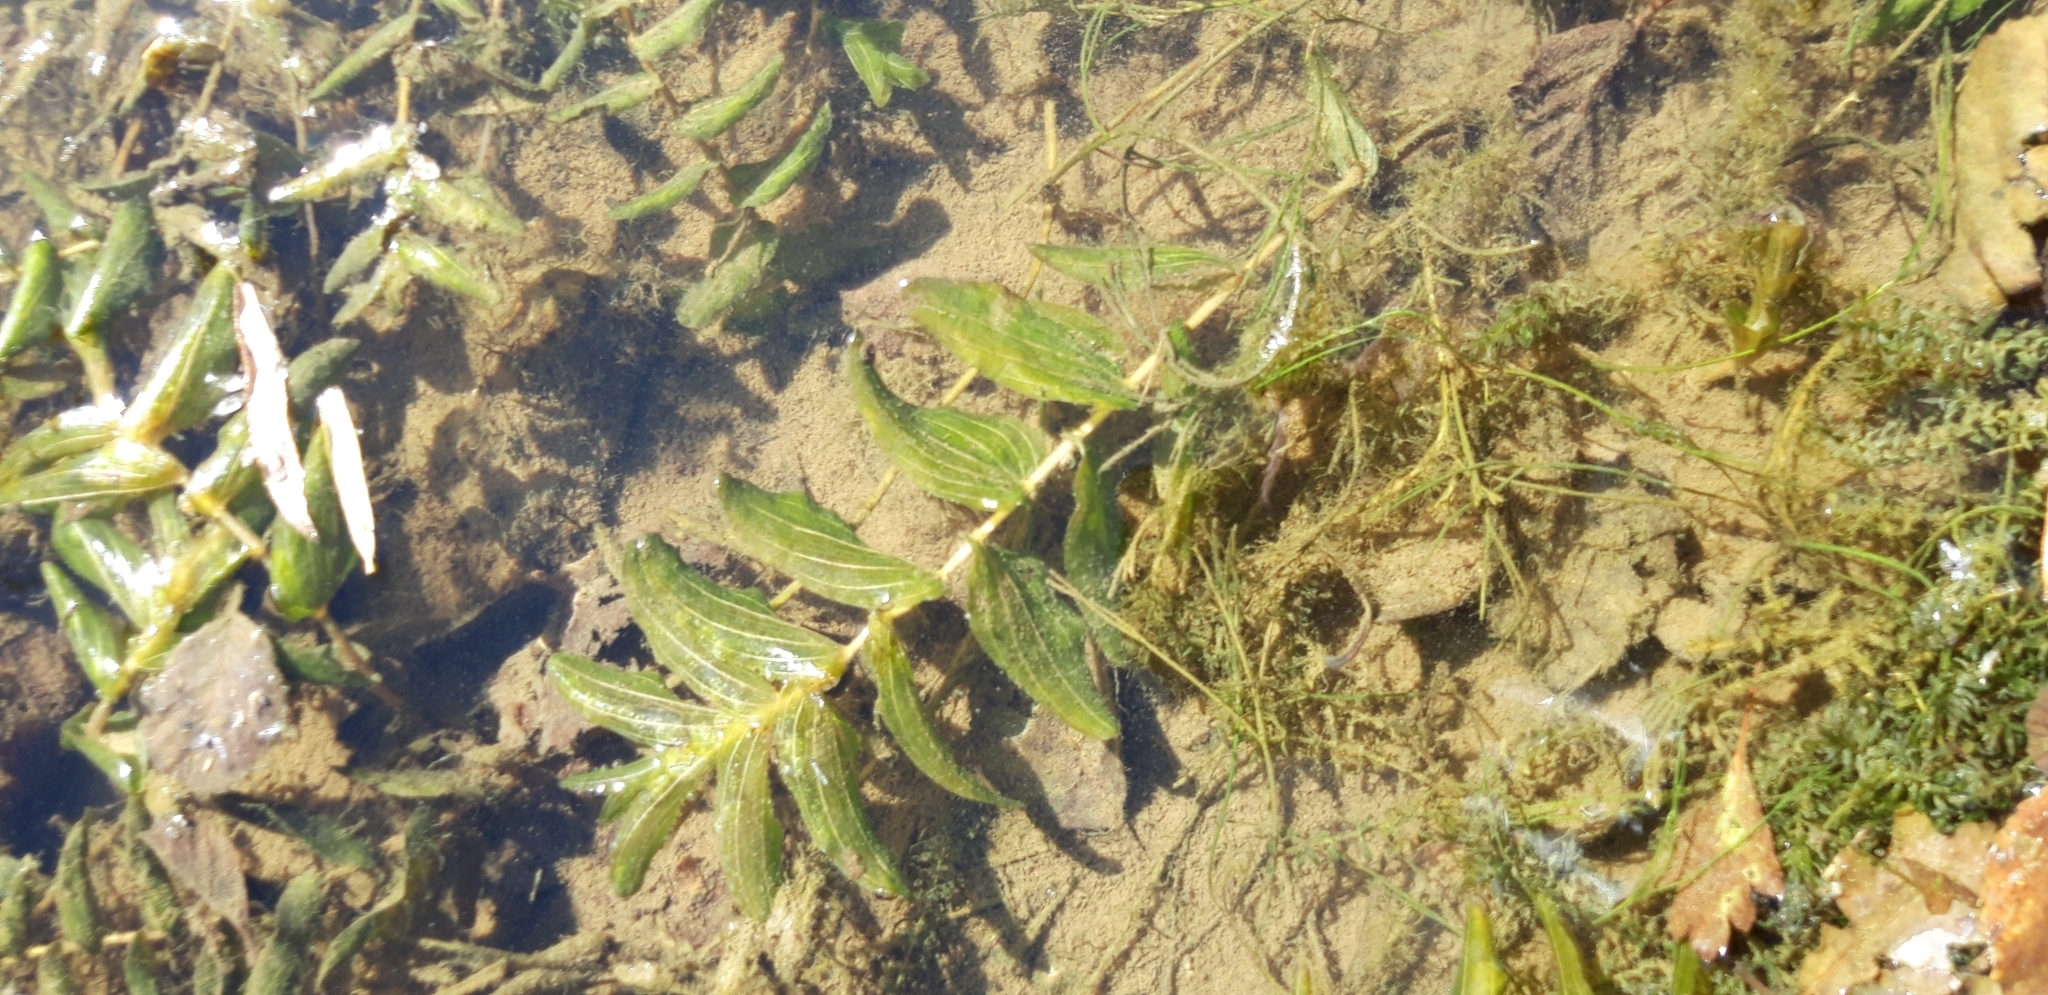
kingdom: Plantae
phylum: Tracheophyta
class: Liliopsida
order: Alismatales
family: Potamogetonaceae
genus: Potamogeton
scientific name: Potamogeton perfoliatus
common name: Perfoliate pondweed
